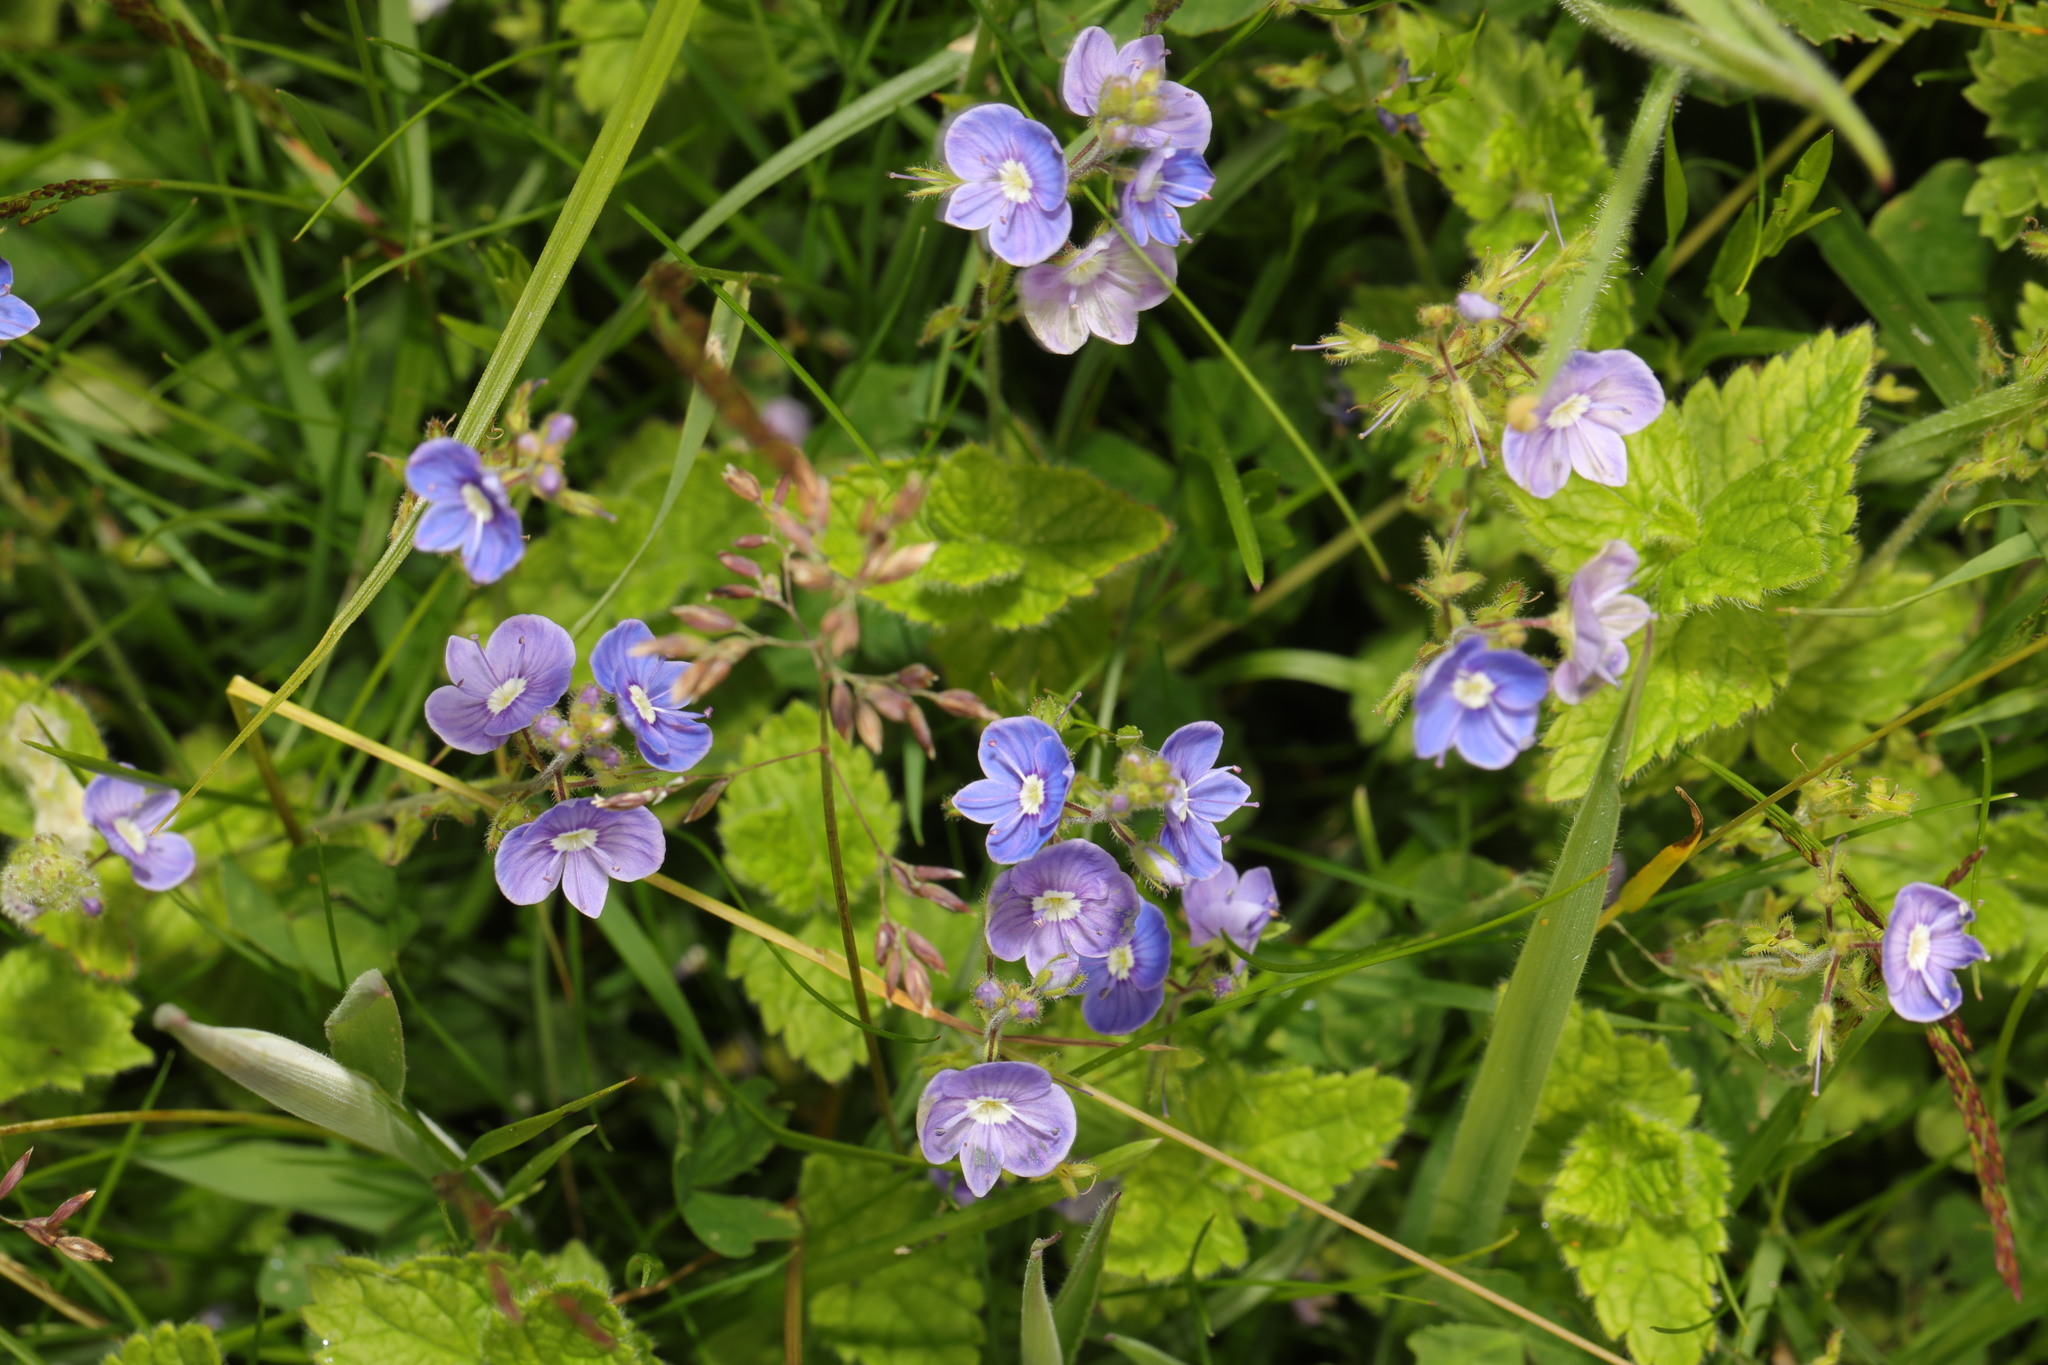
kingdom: Plantae
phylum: Tracheophyta
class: Magnoliopsida
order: Lamiales
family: Plantaginaceae
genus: Veronica
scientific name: Veronica chamaedrys
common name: Germander speedwell
